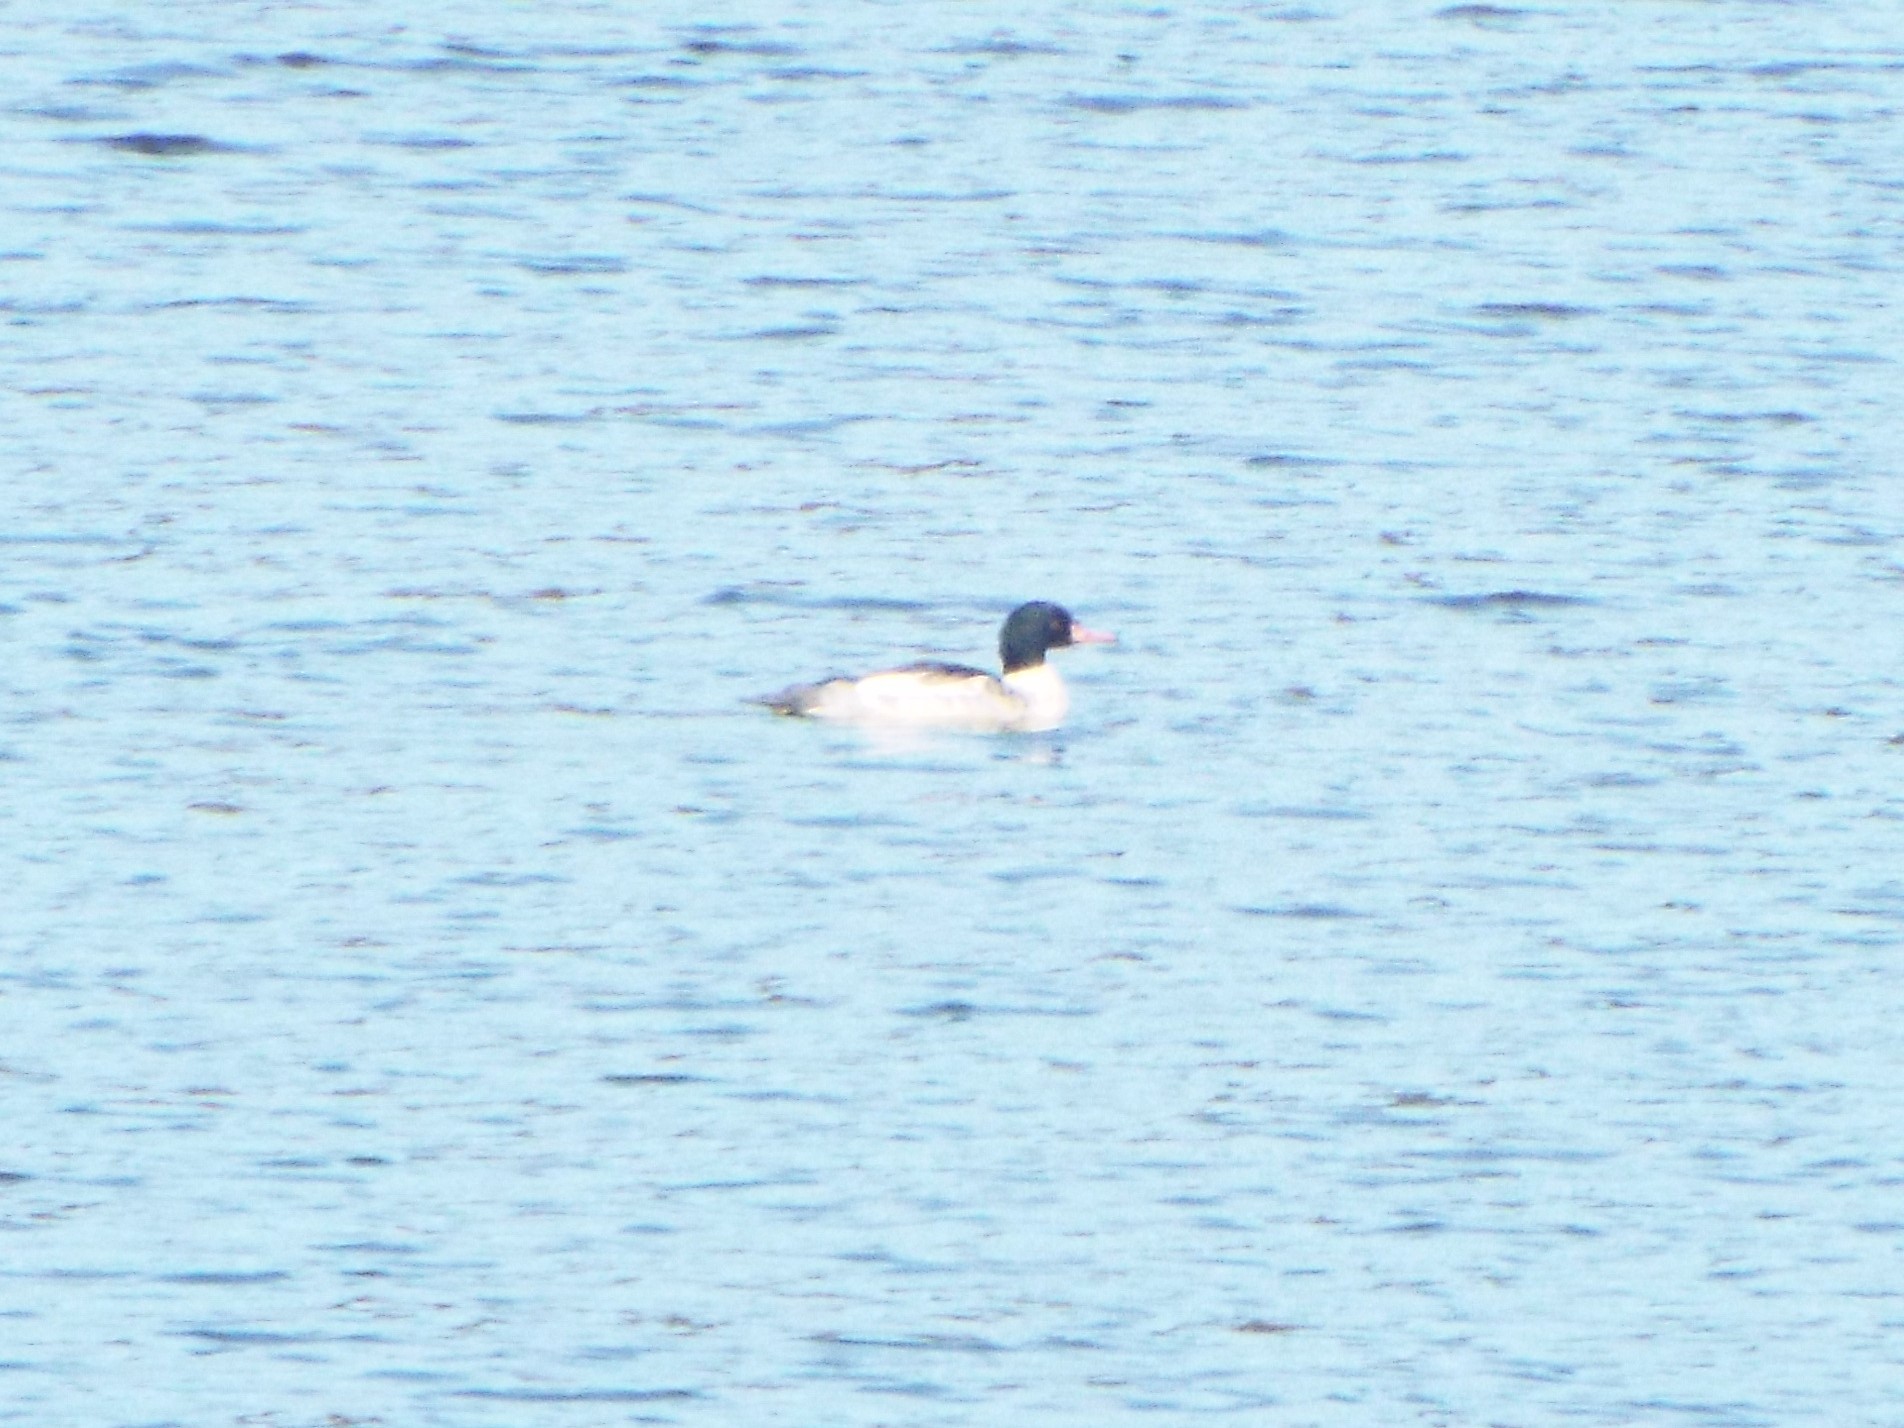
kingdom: Animalia
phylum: Chordata
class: Aves
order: Anseriformes
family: Anatidae
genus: Mergus
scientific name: Mergus merganser
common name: Common merganser
